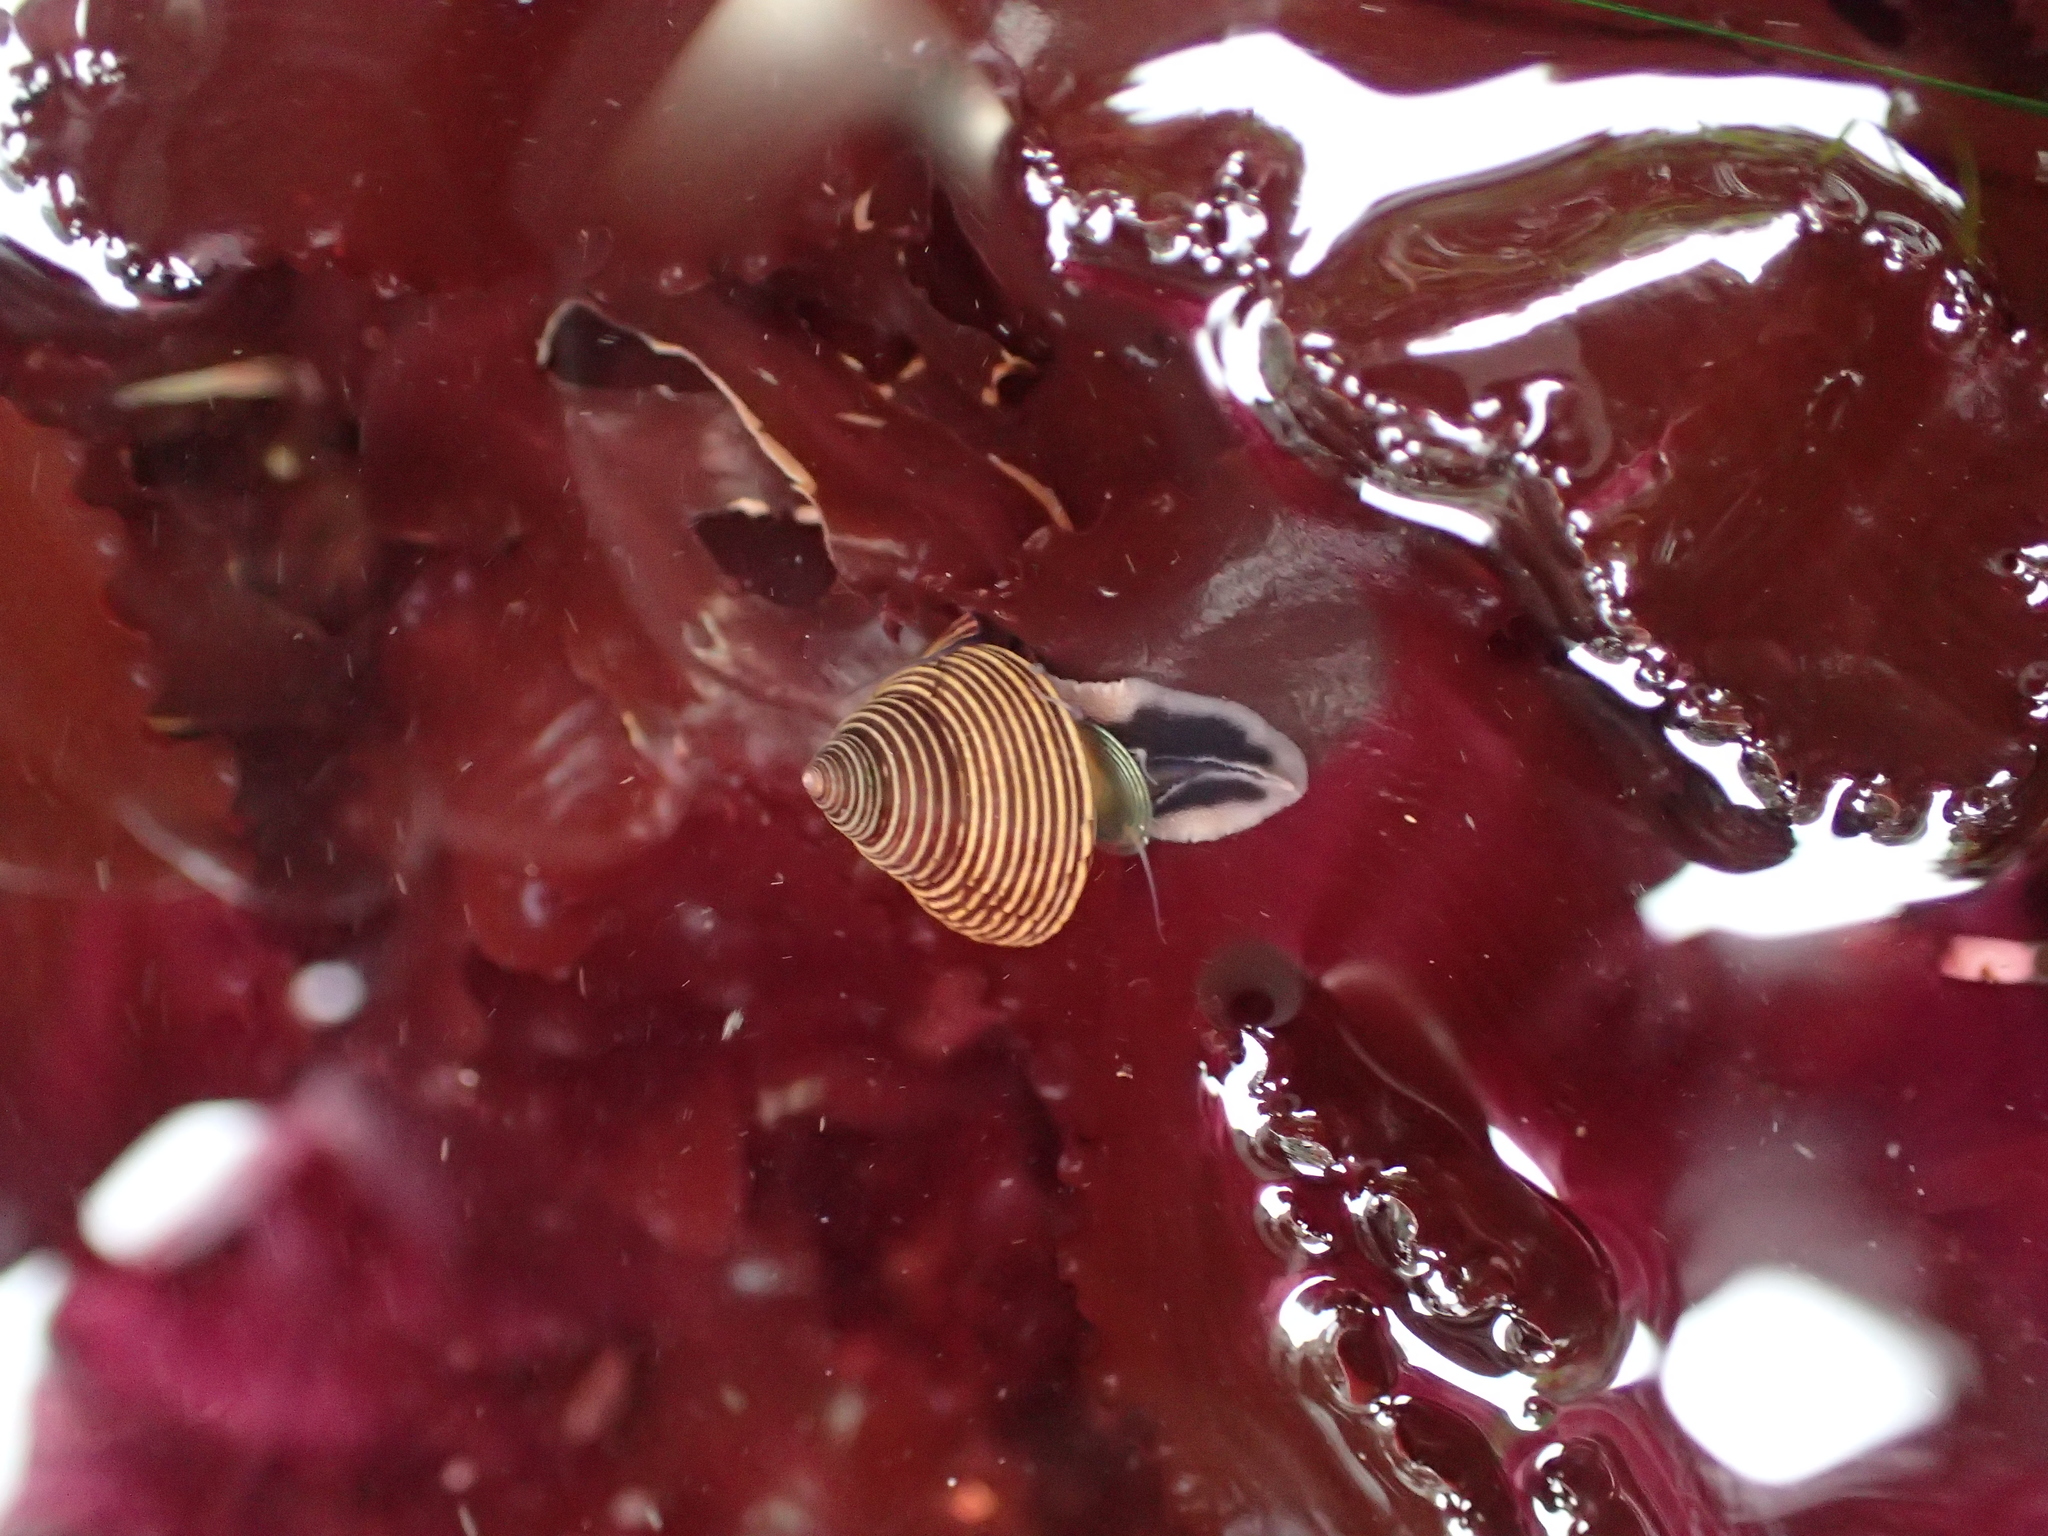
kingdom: Animalia
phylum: Mollusca
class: Gastropoda
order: Trochida
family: Calliostomatidae
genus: Calliostoma
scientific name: Calliostoma ligatum
